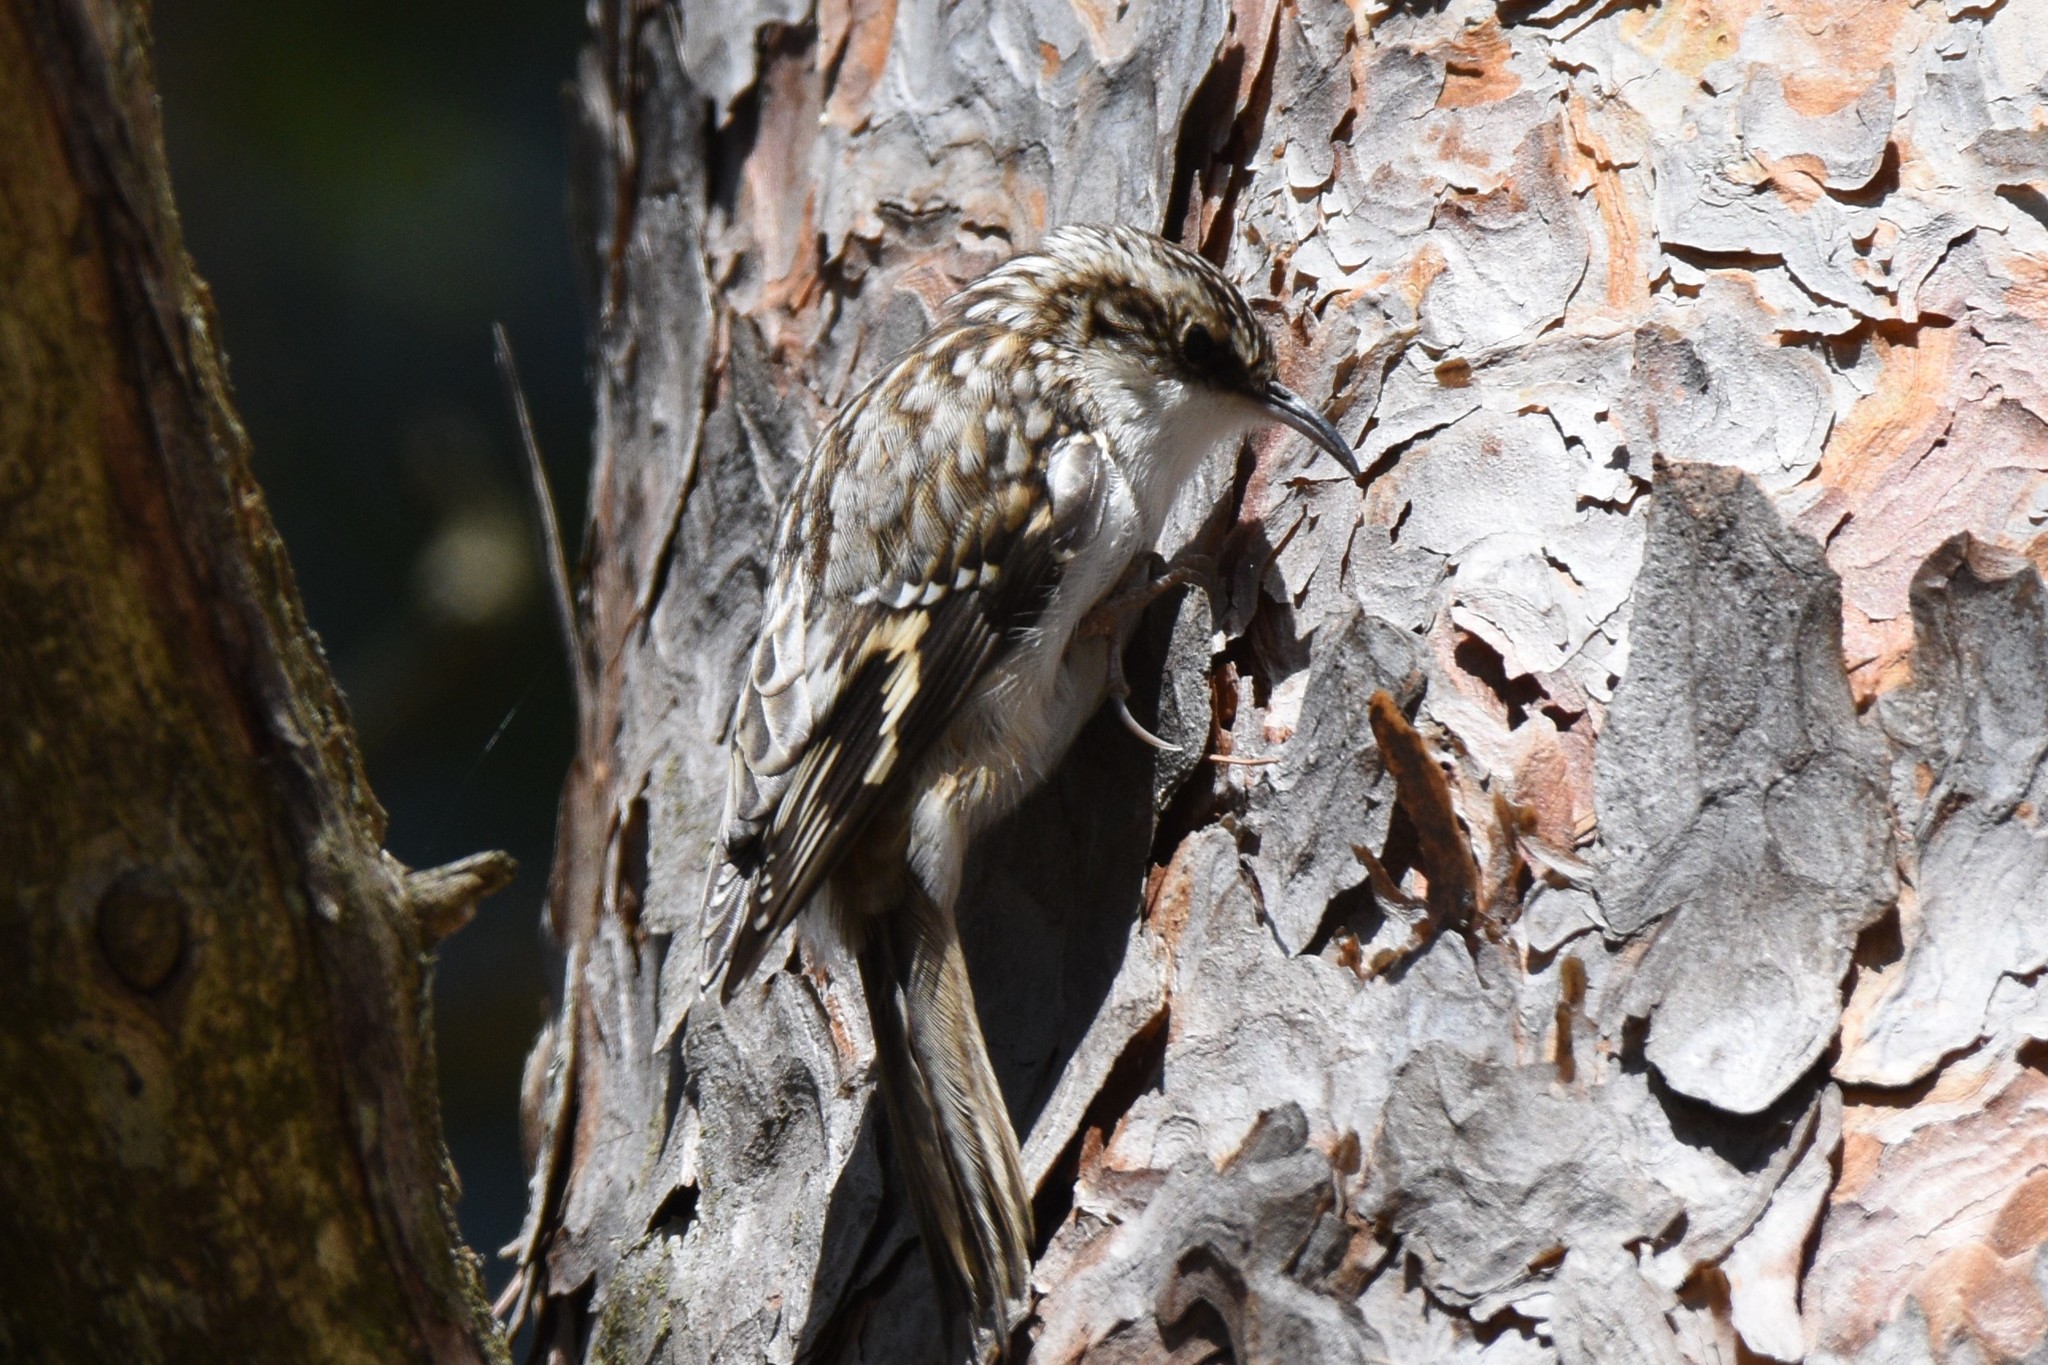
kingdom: Animalia
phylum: Chordata
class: Aves
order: Passeriformes
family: Certhiidae
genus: Certhia
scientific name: Certhia americana
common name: Brown creeper
